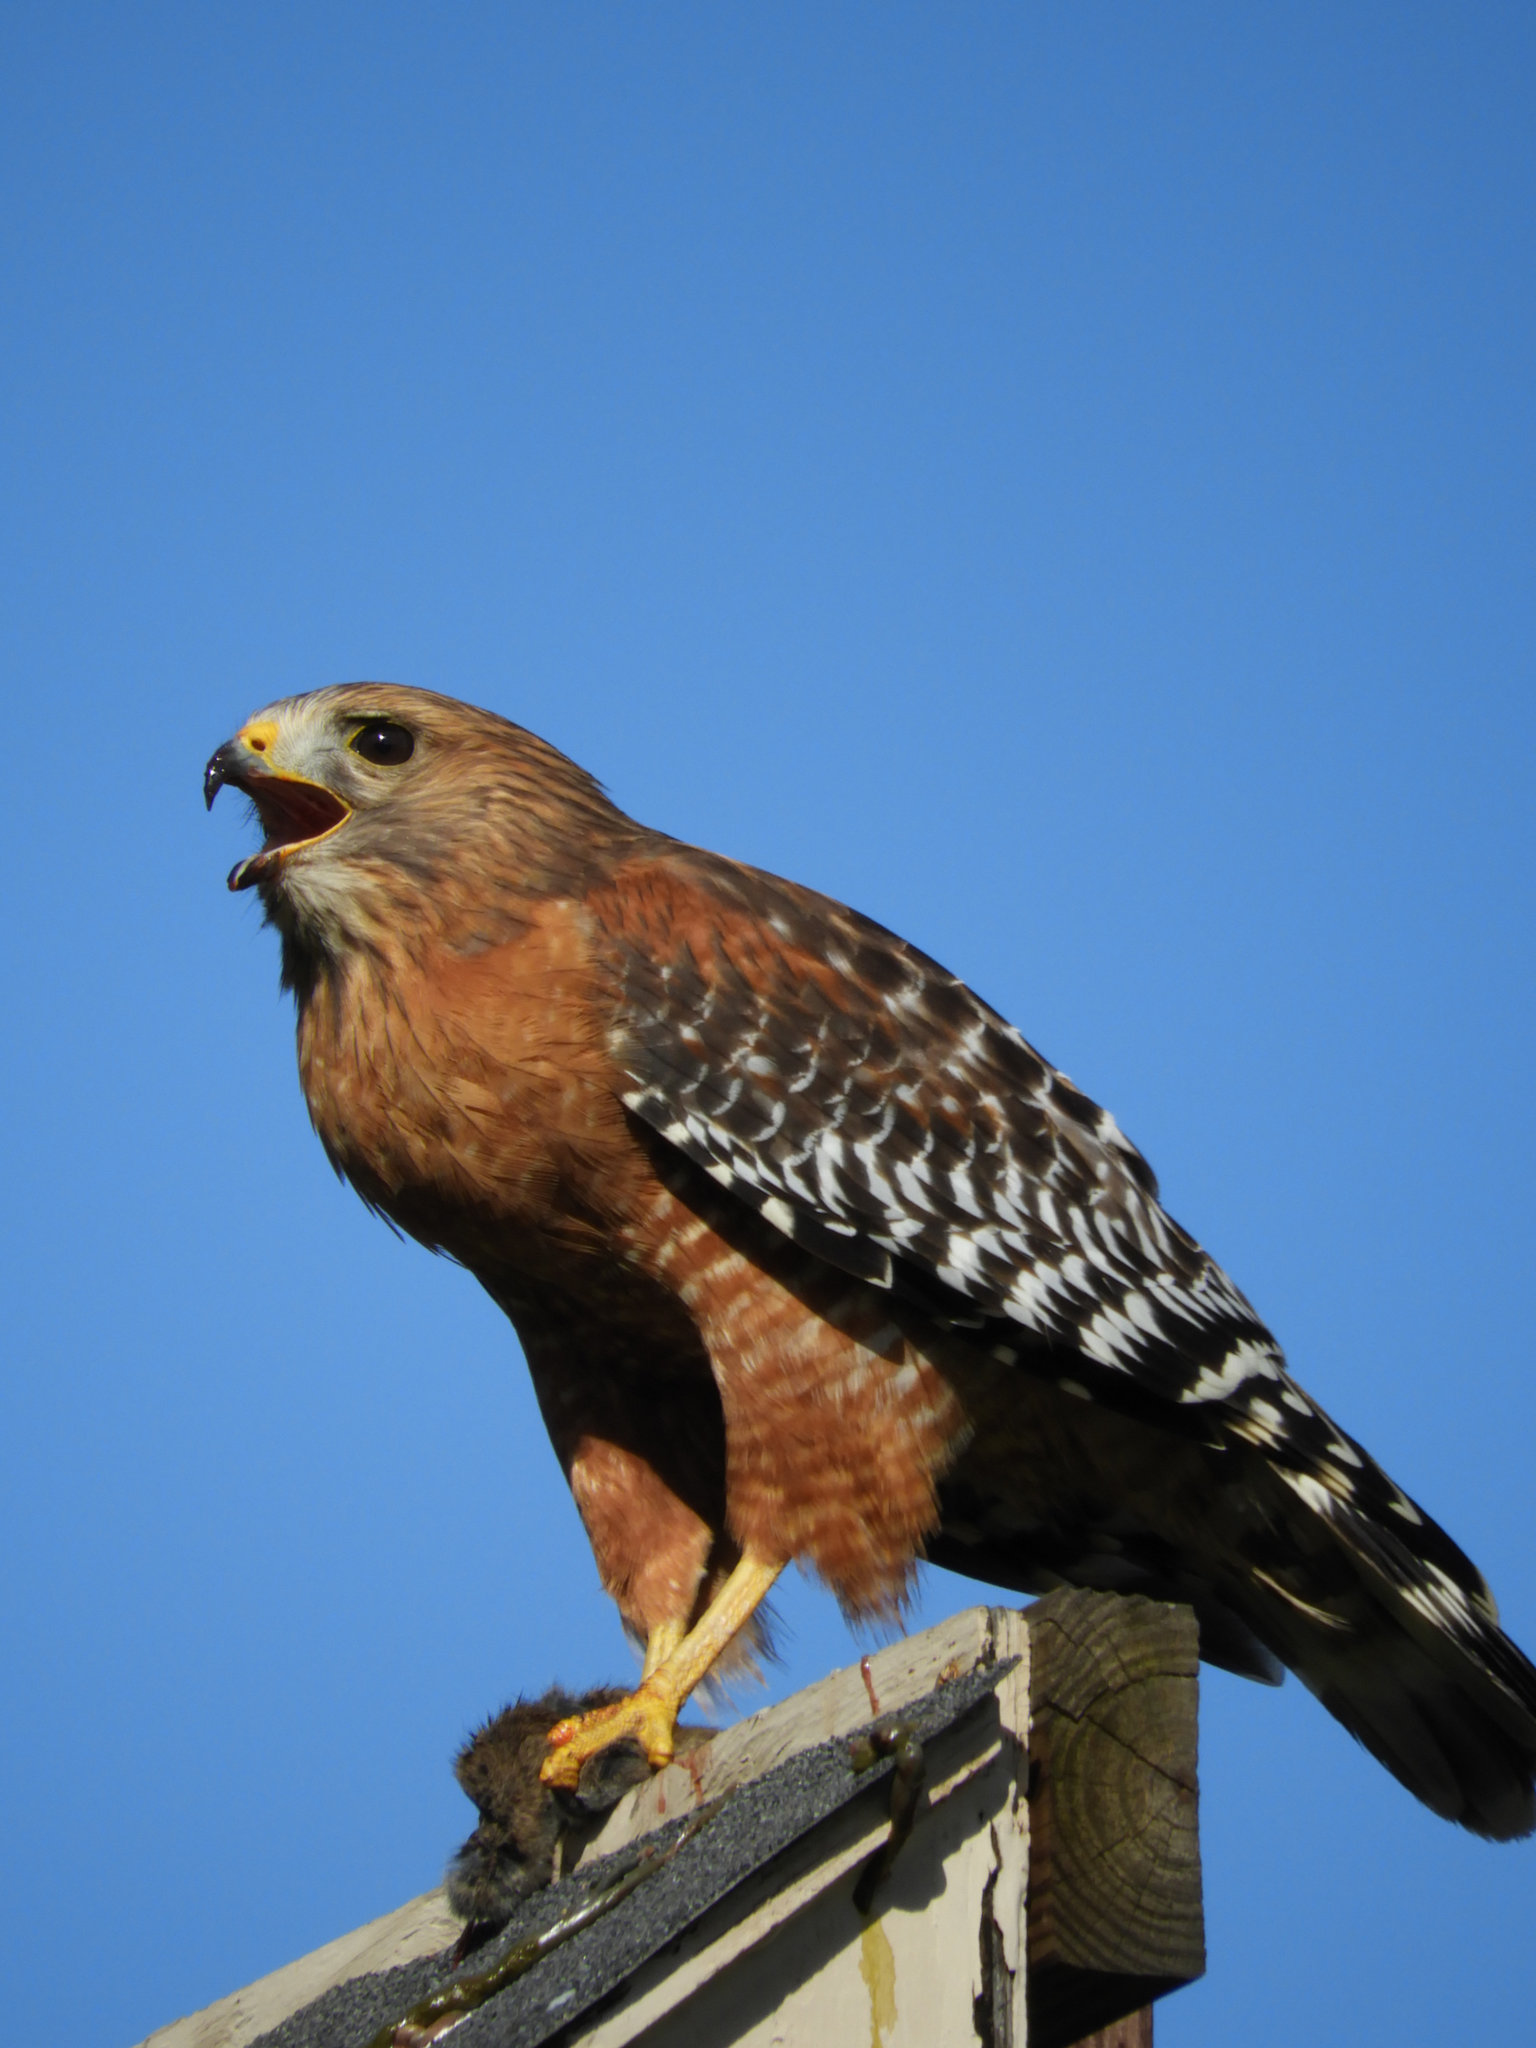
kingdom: Animalia
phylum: Chordata
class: Aves
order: Accipitriformes
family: Accipitridae
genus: Buteo
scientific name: Buteo lineatus
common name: Red-shouldered hawk
